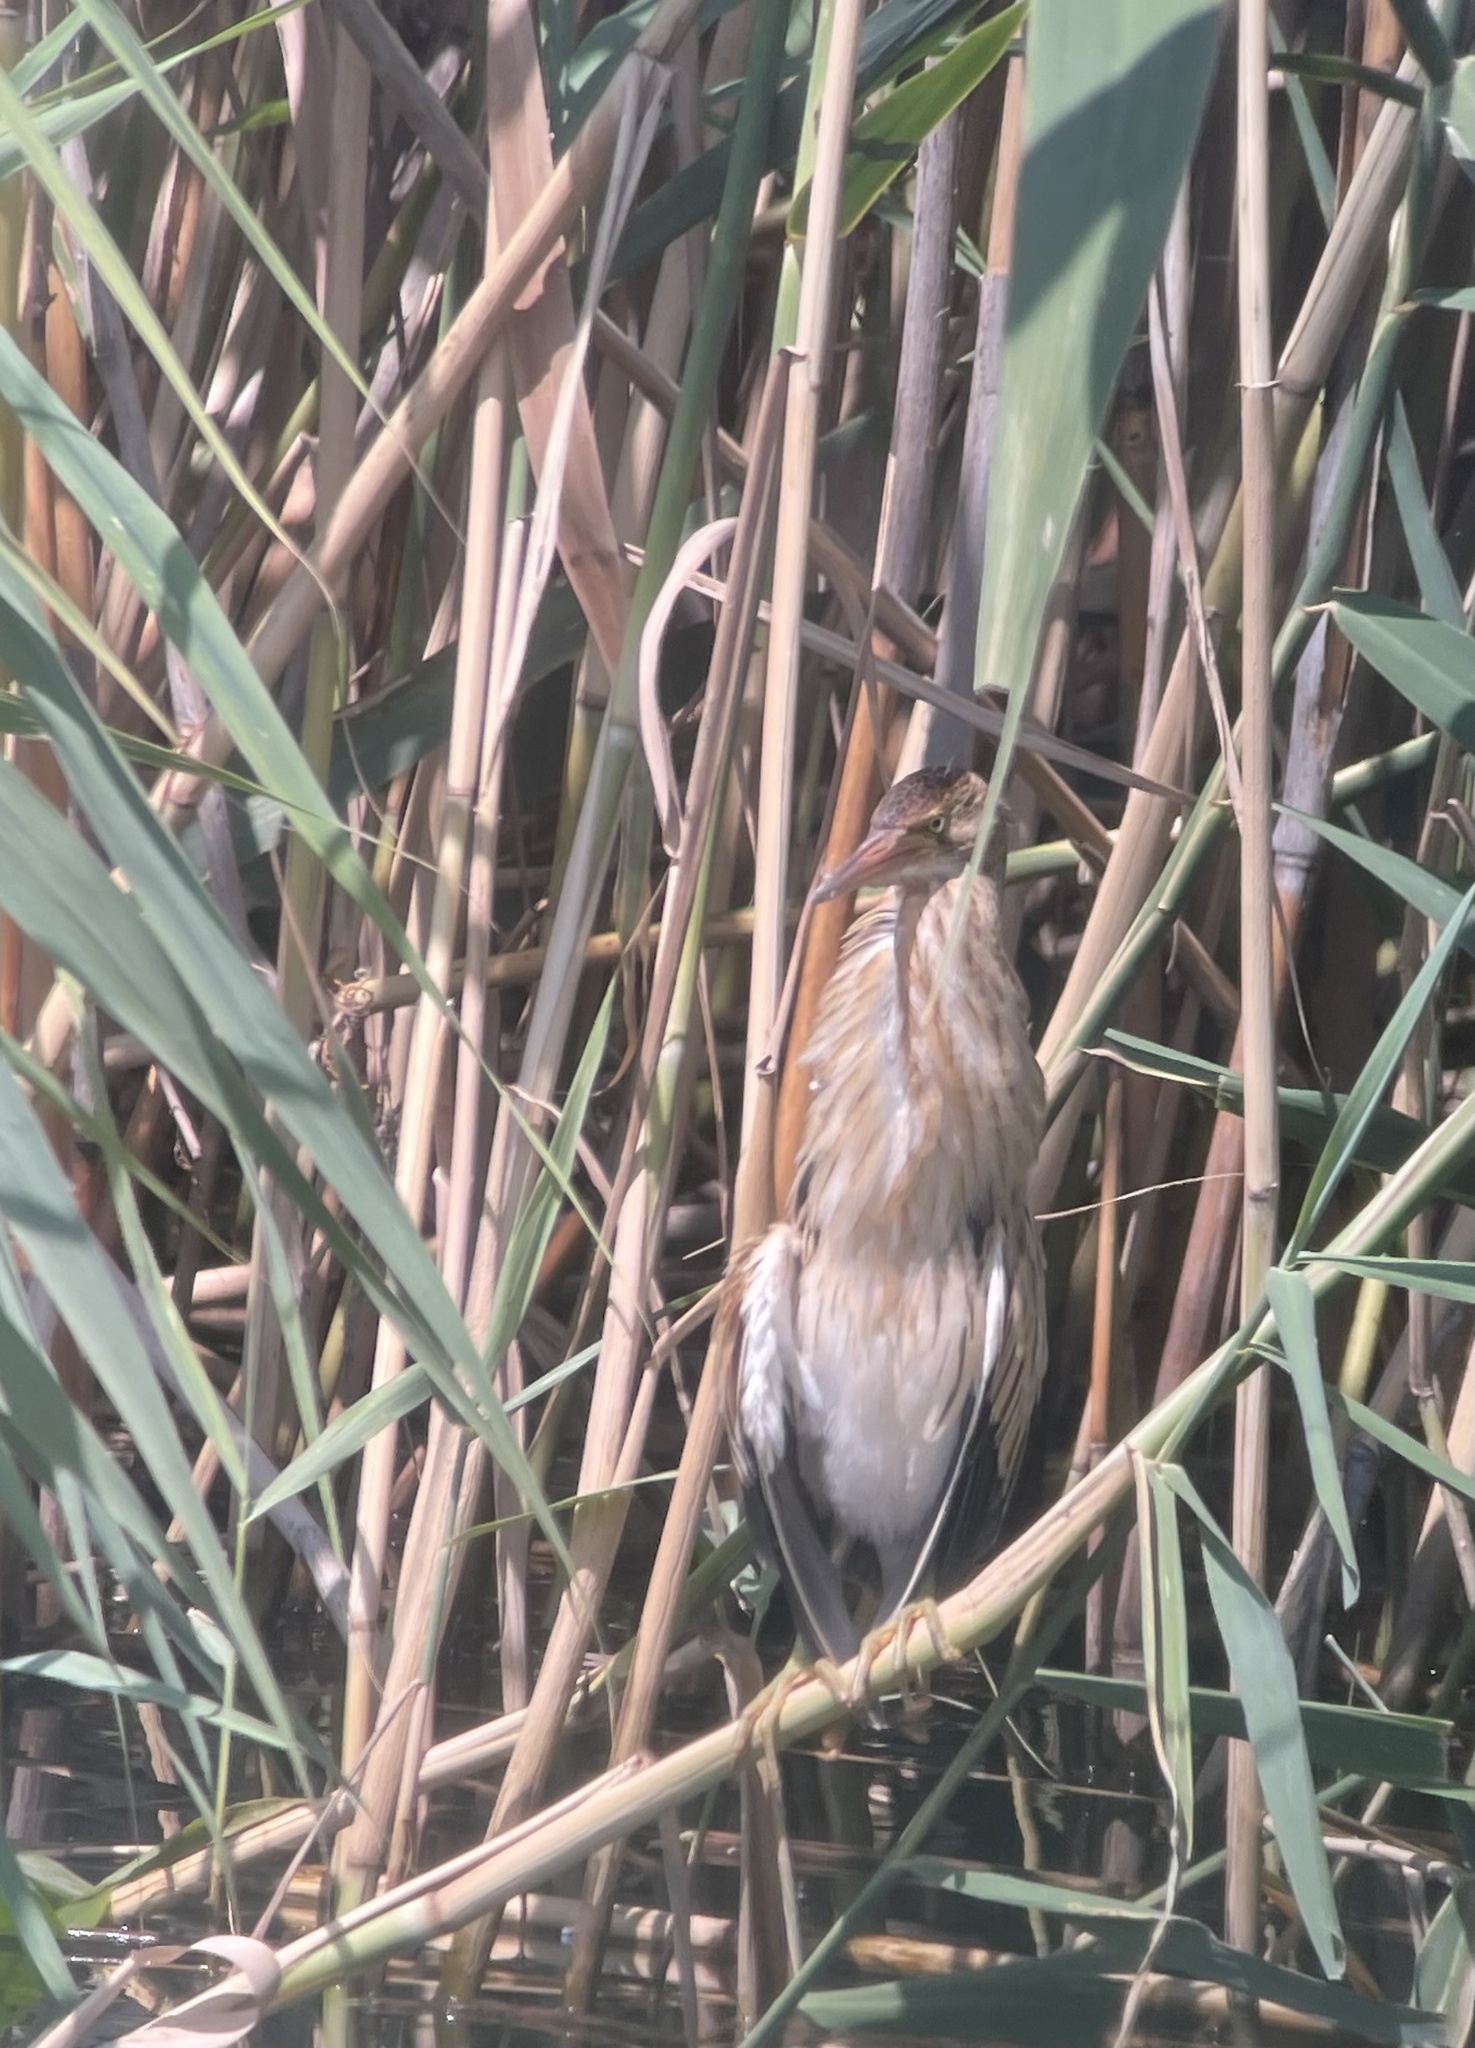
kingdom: Animalia
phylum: Chordata
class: Aves
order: Pelecaniformes
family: Ardeidae
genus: Ixobrychus
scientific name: Ixobrychus minutus
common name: Little bittern
